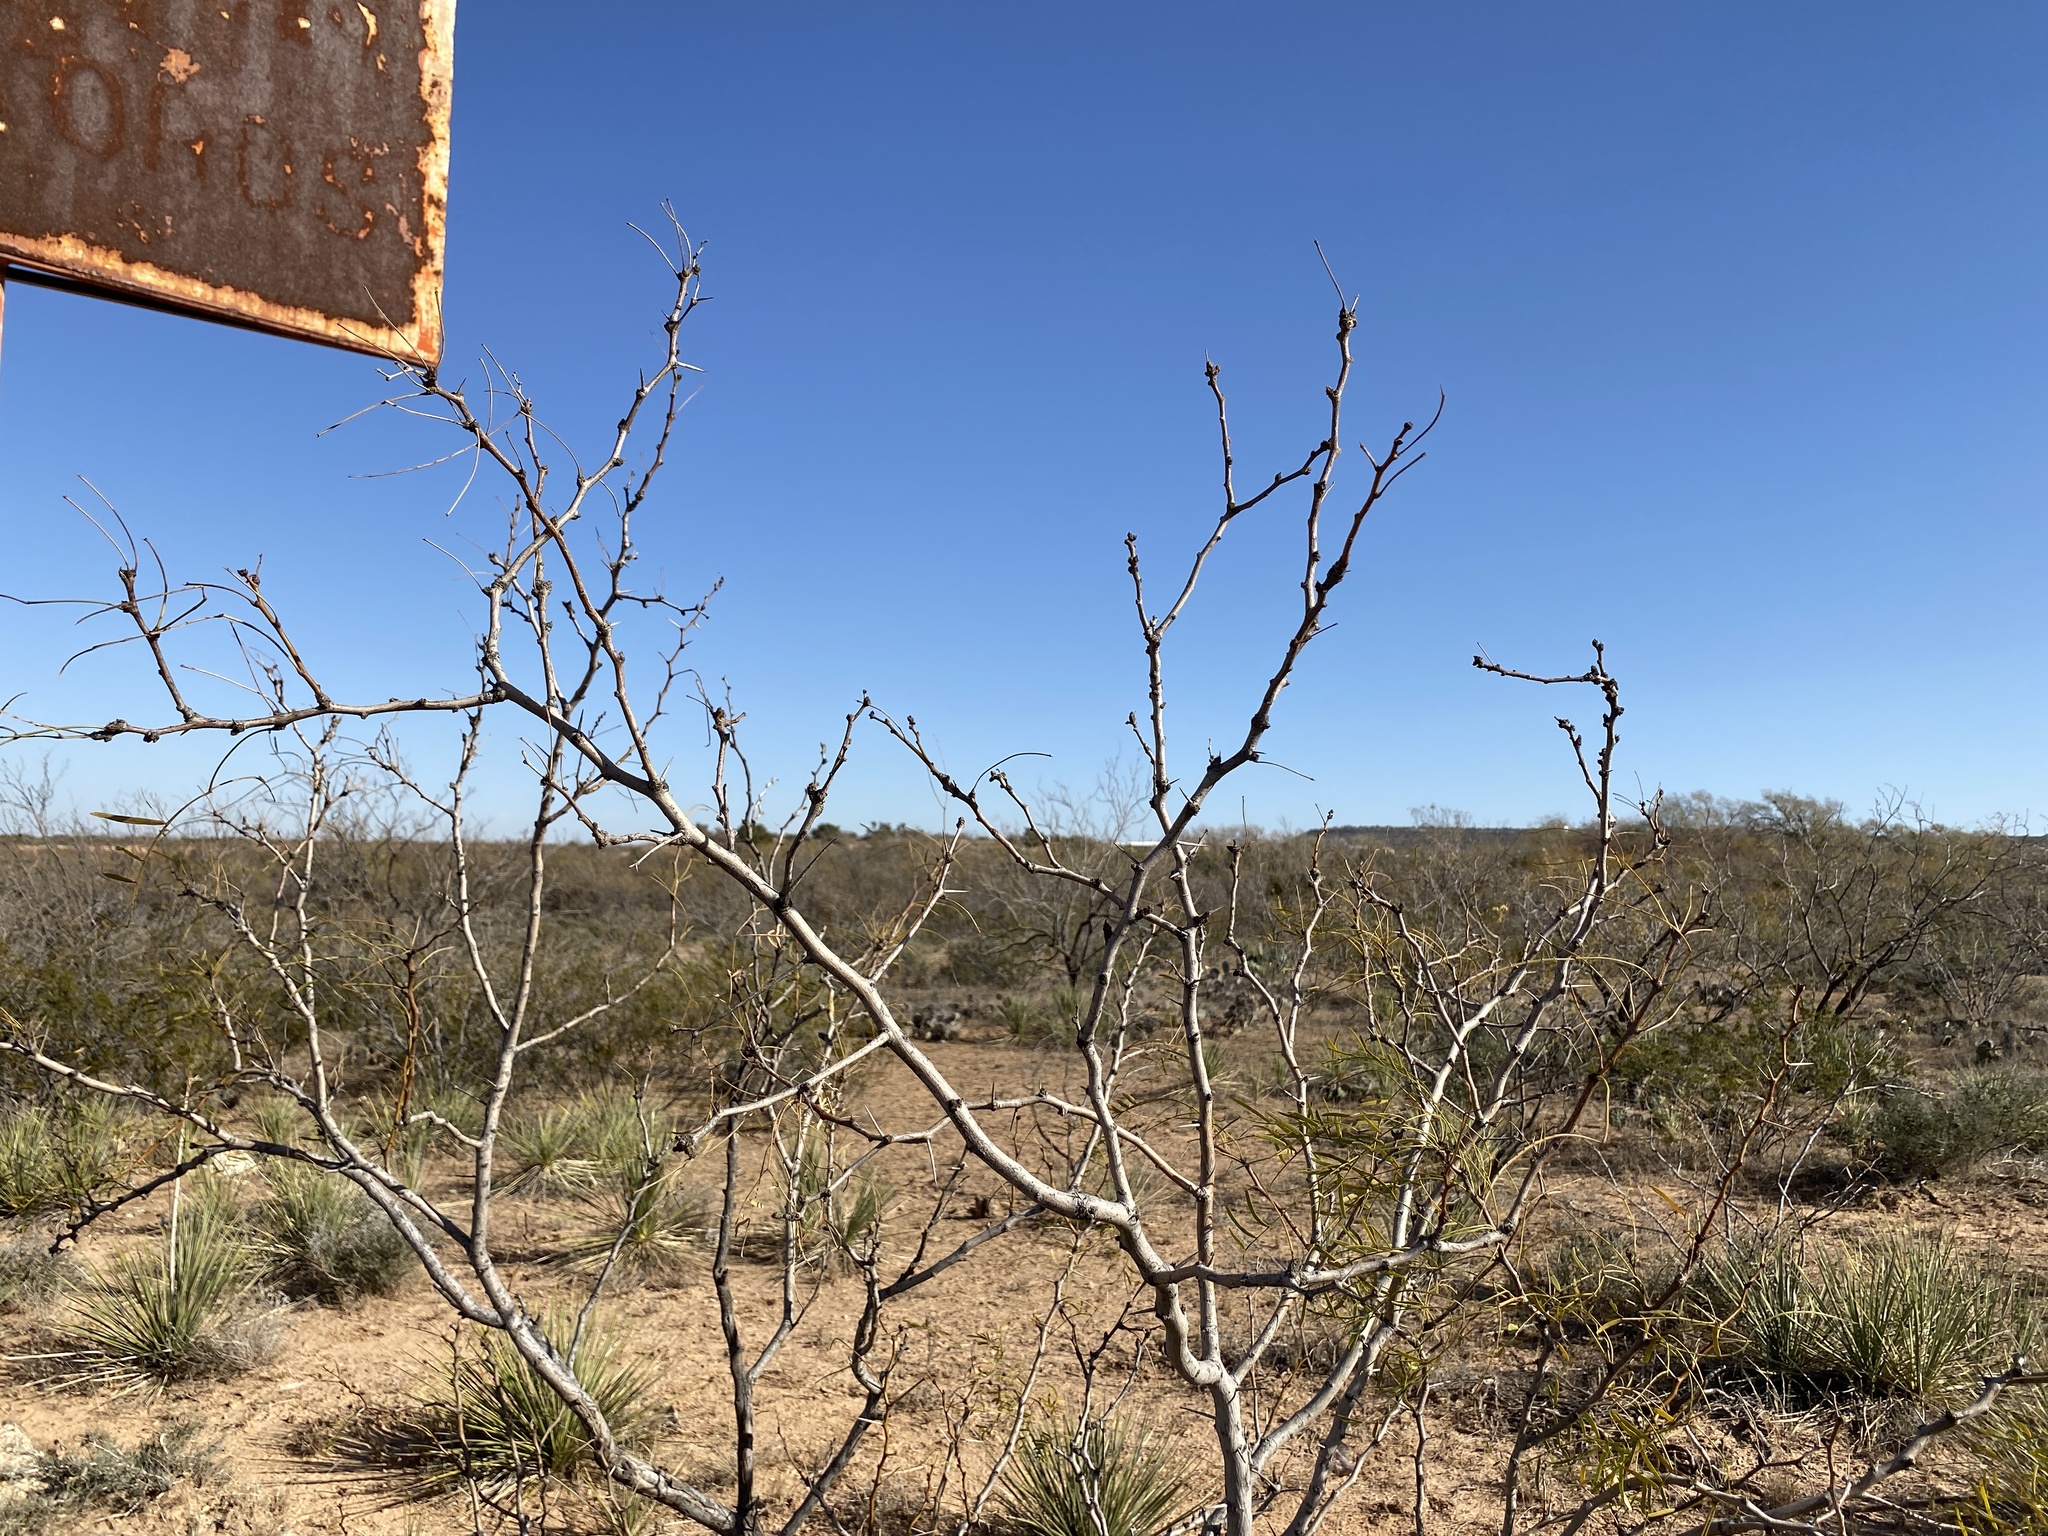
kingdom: Plantae
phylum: Tracheophyta
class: Magnoliopsida
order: Fabales
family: Fabaceae
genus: Prosopis
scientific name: Prosopis glandulosa
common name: Honey mesquite
